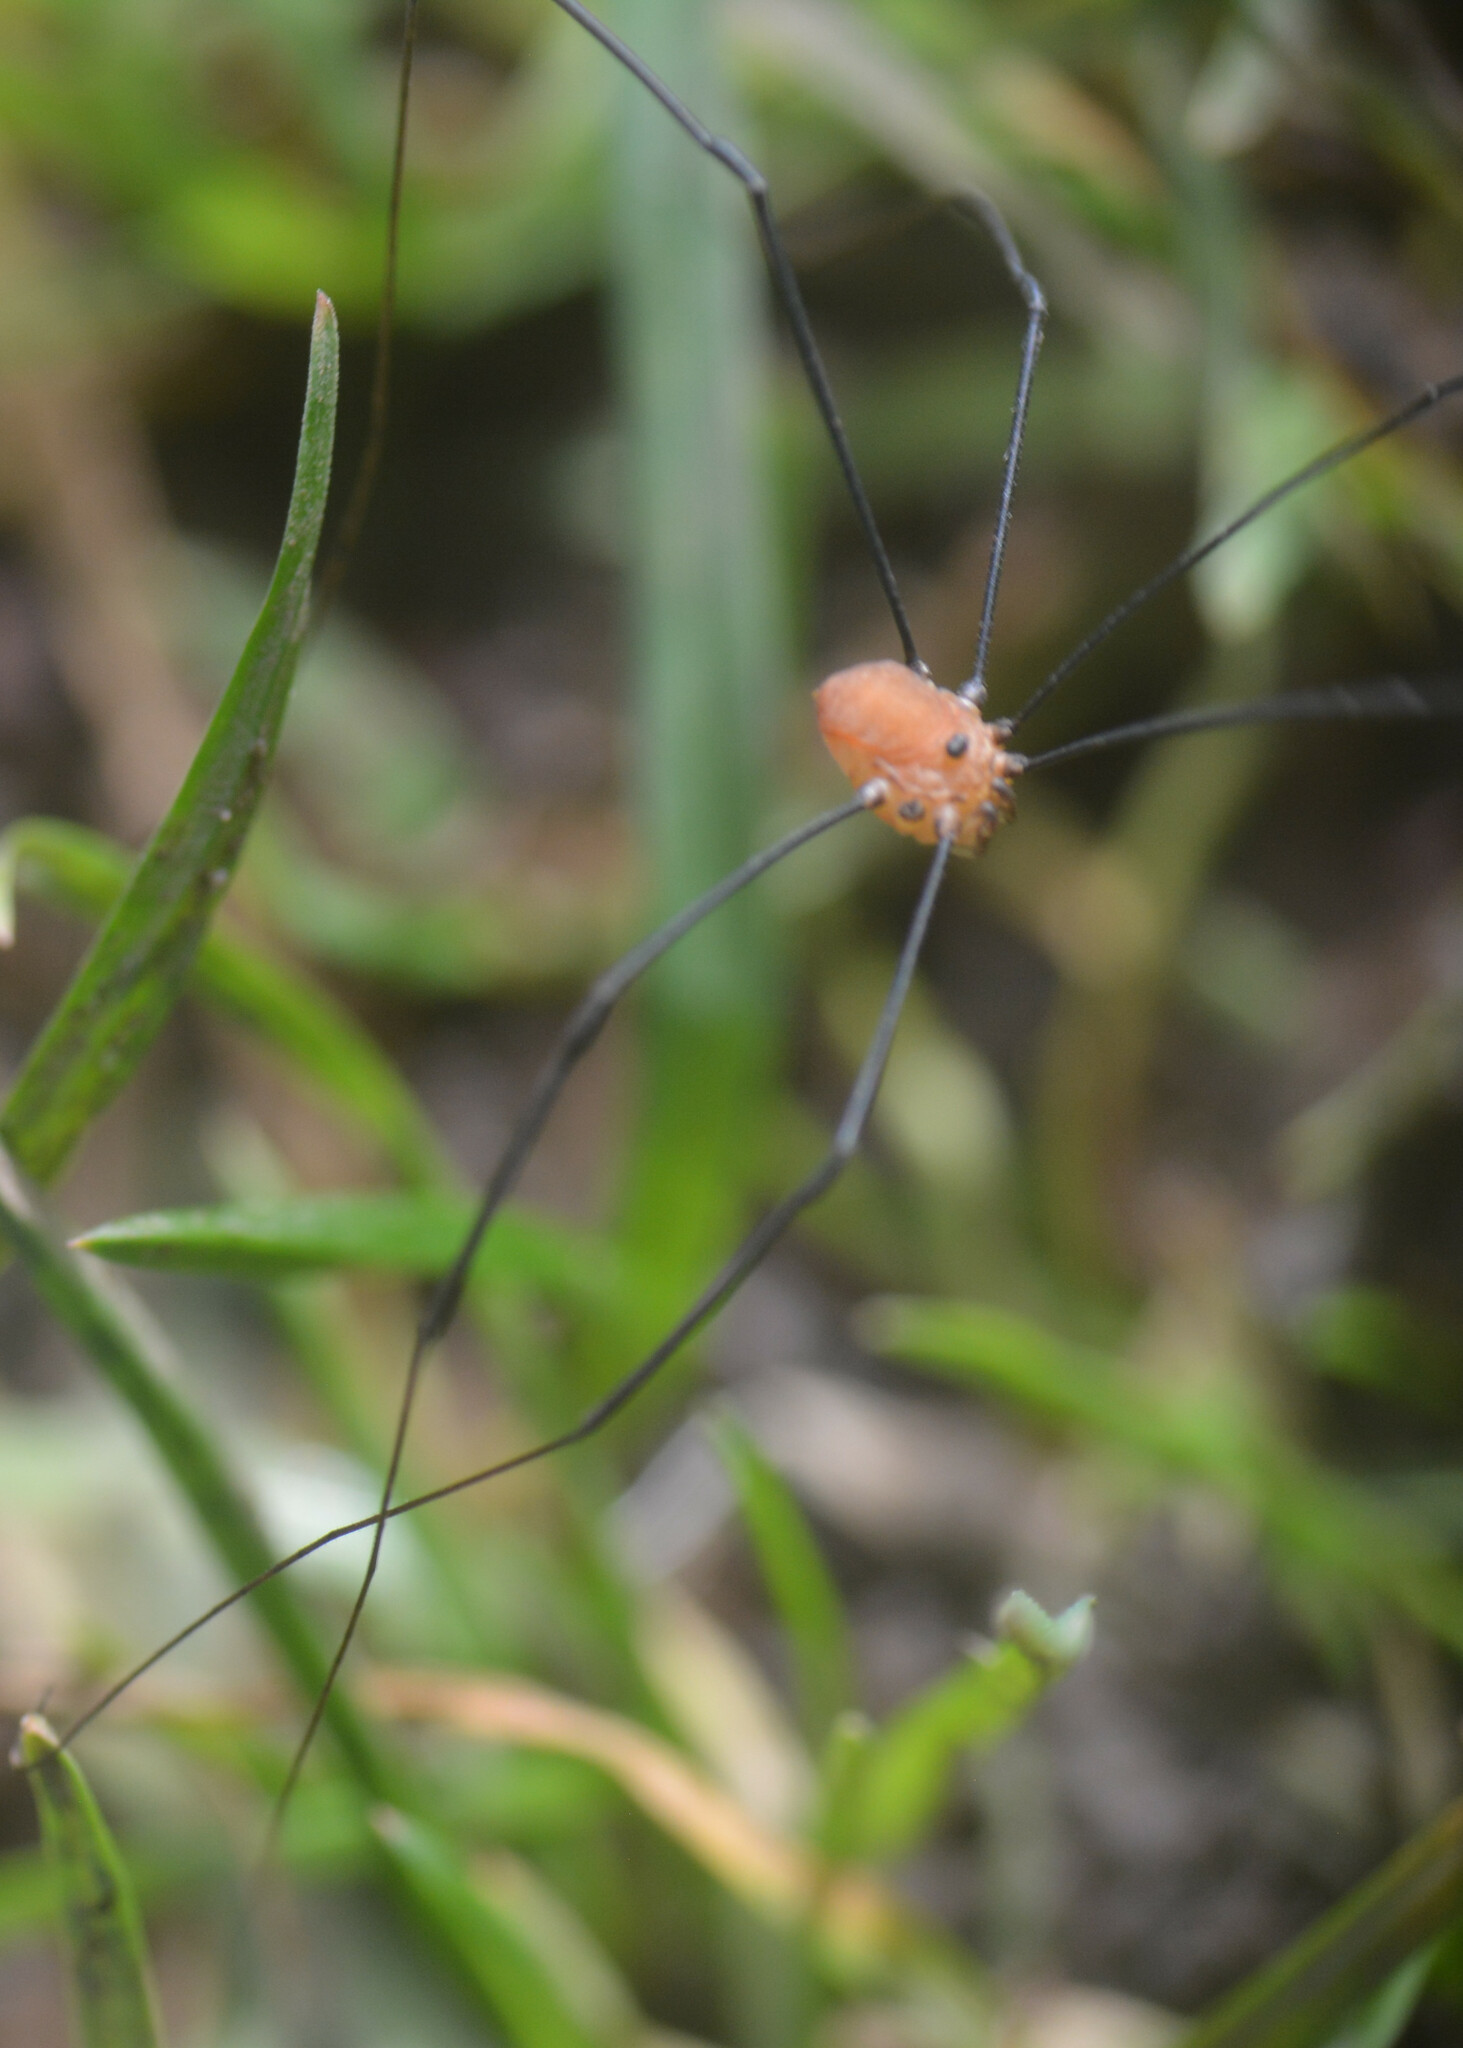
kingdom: Animalia
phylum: Arthropoda
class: Arachnida
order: Opiliones
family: Sclerosomatidae
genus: Leiobunum
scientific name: Leiobunum rotundum
